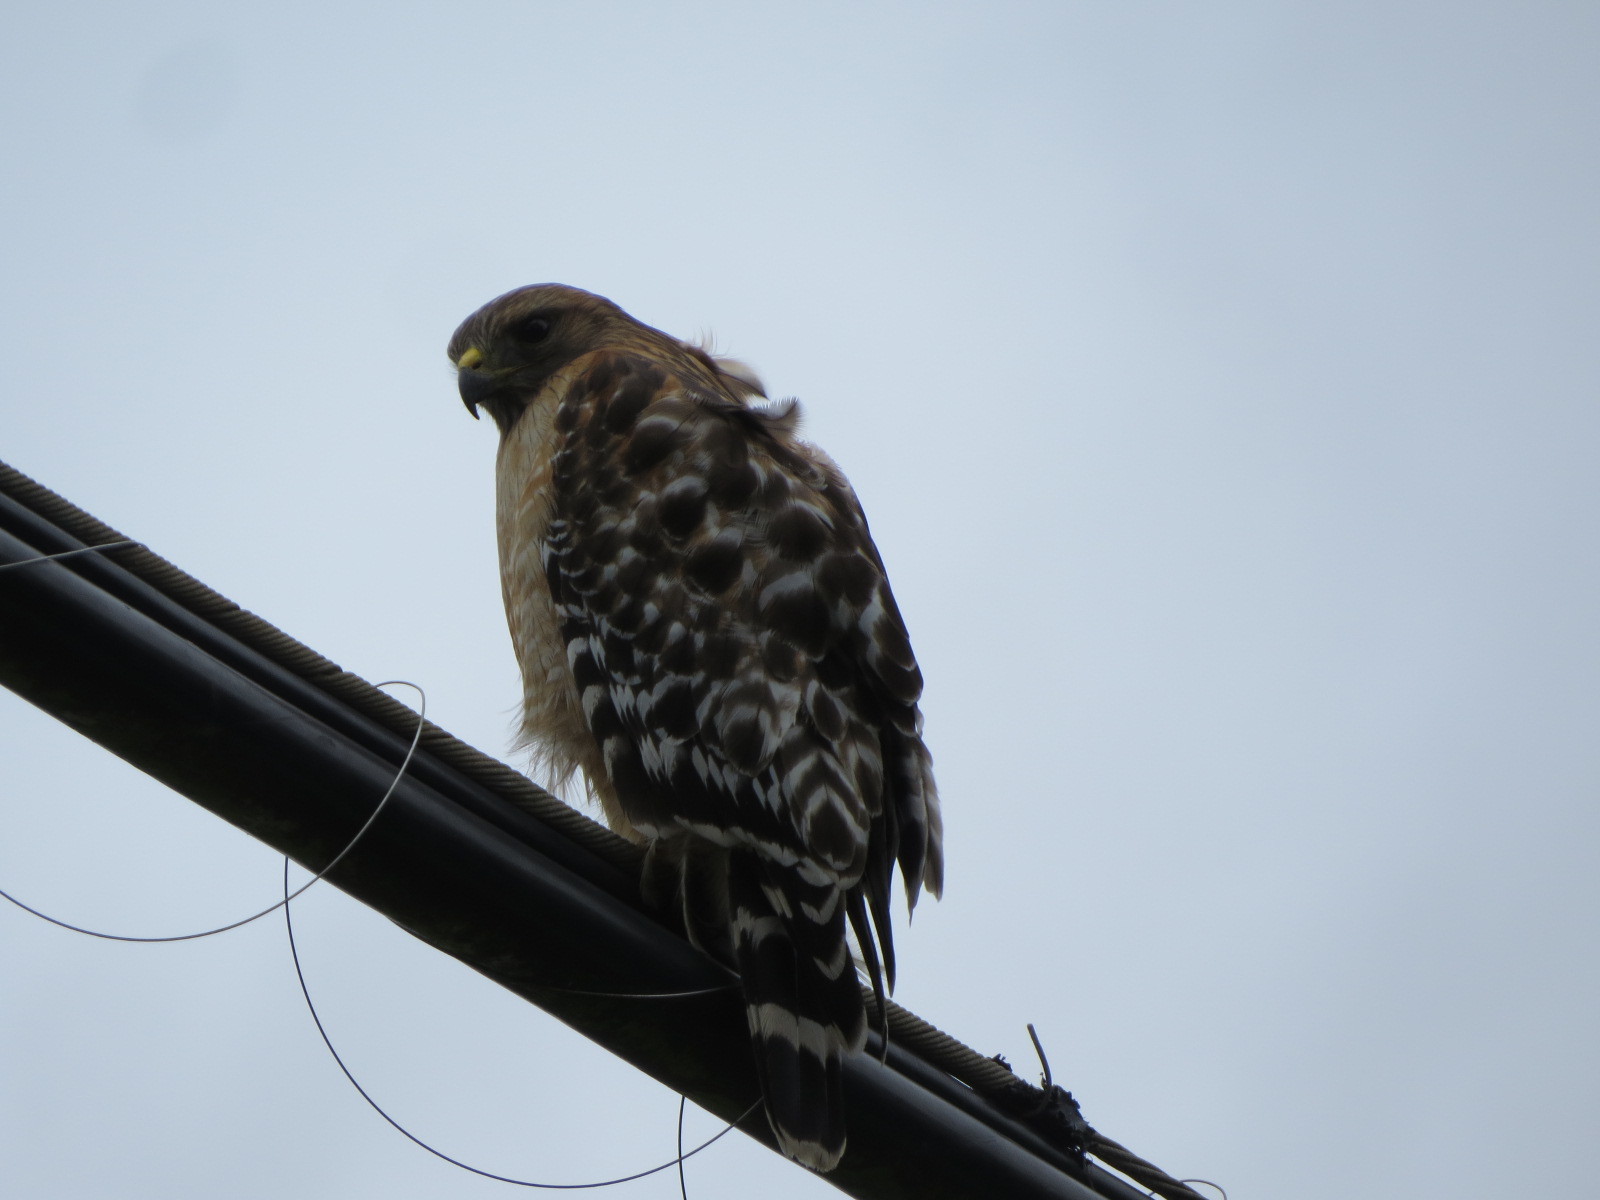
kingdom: Animalia
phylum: Chordata
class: Aves
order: Accipitriformes
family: Accipitridae
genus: Buteo
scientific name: Buteo lineatus
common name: Red-shouldered hawk
